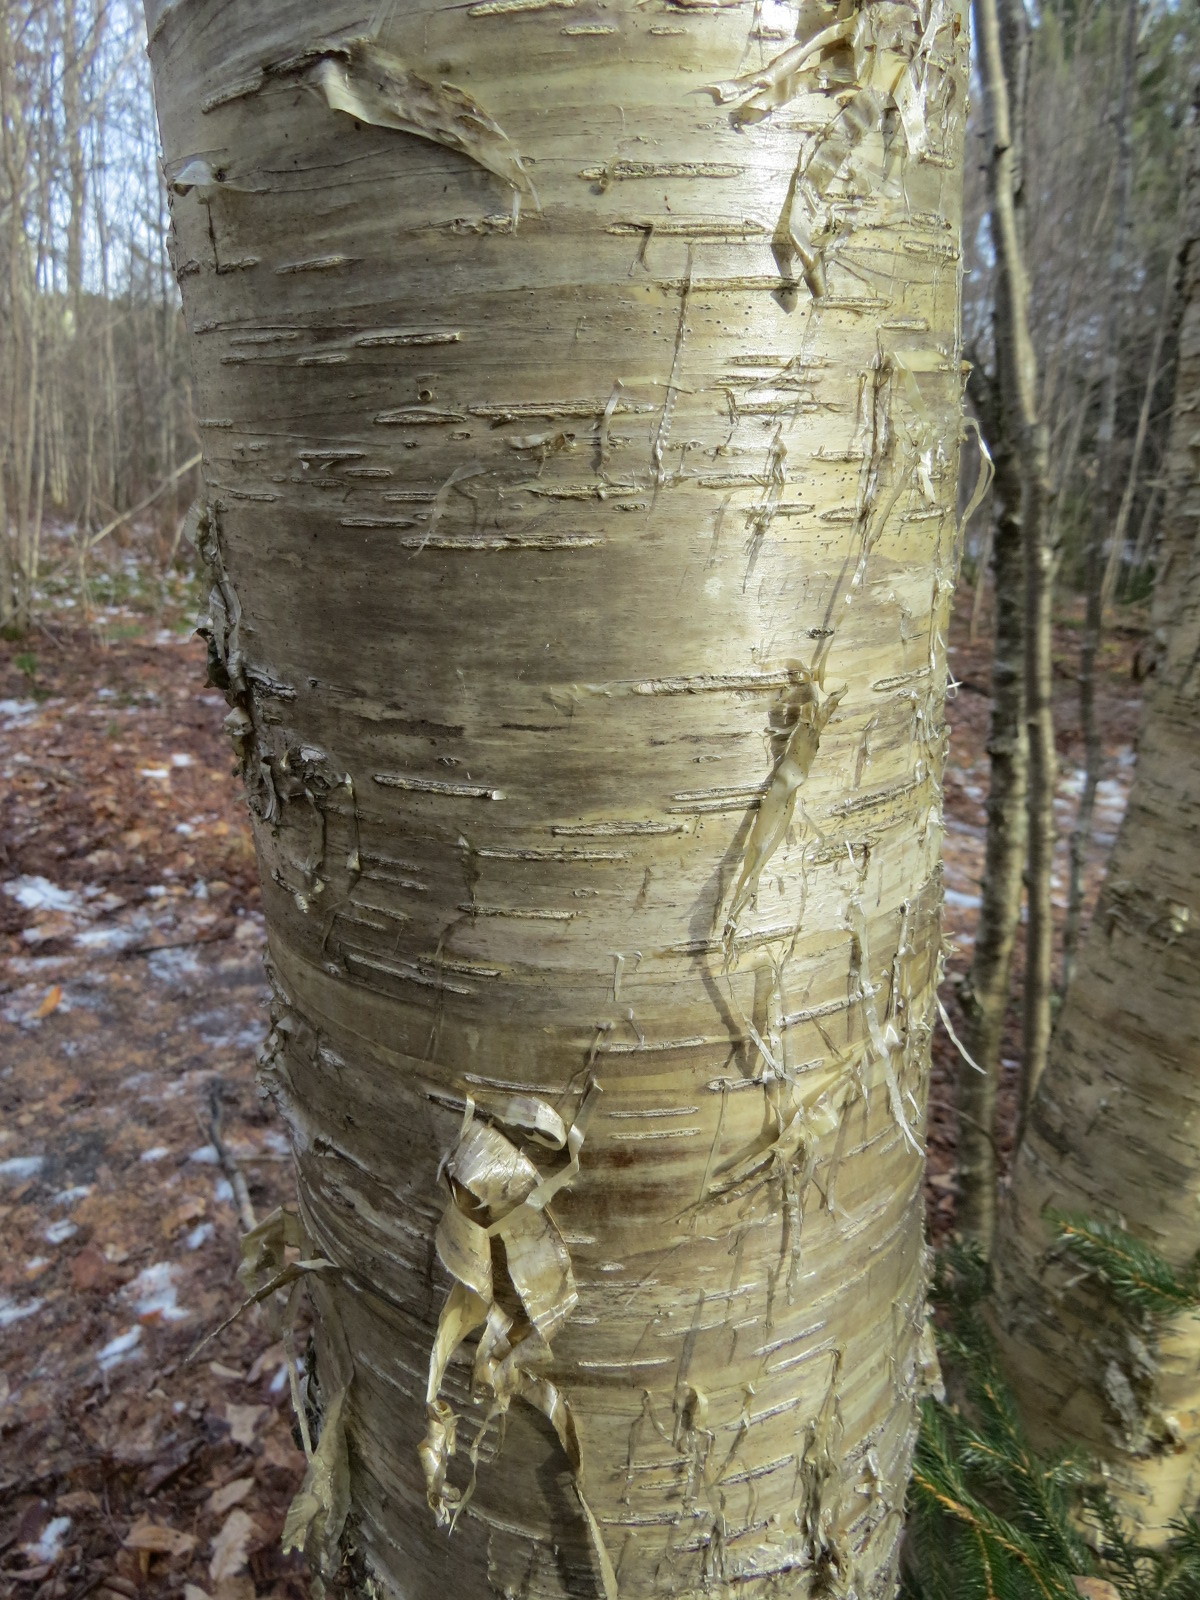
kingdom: Plantae
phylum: Tracheophyta
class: Magnoliopsida
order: Fagales
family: Betulaceae
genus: Betula
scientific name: Betula alleghaniensis
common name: Yellow birch
